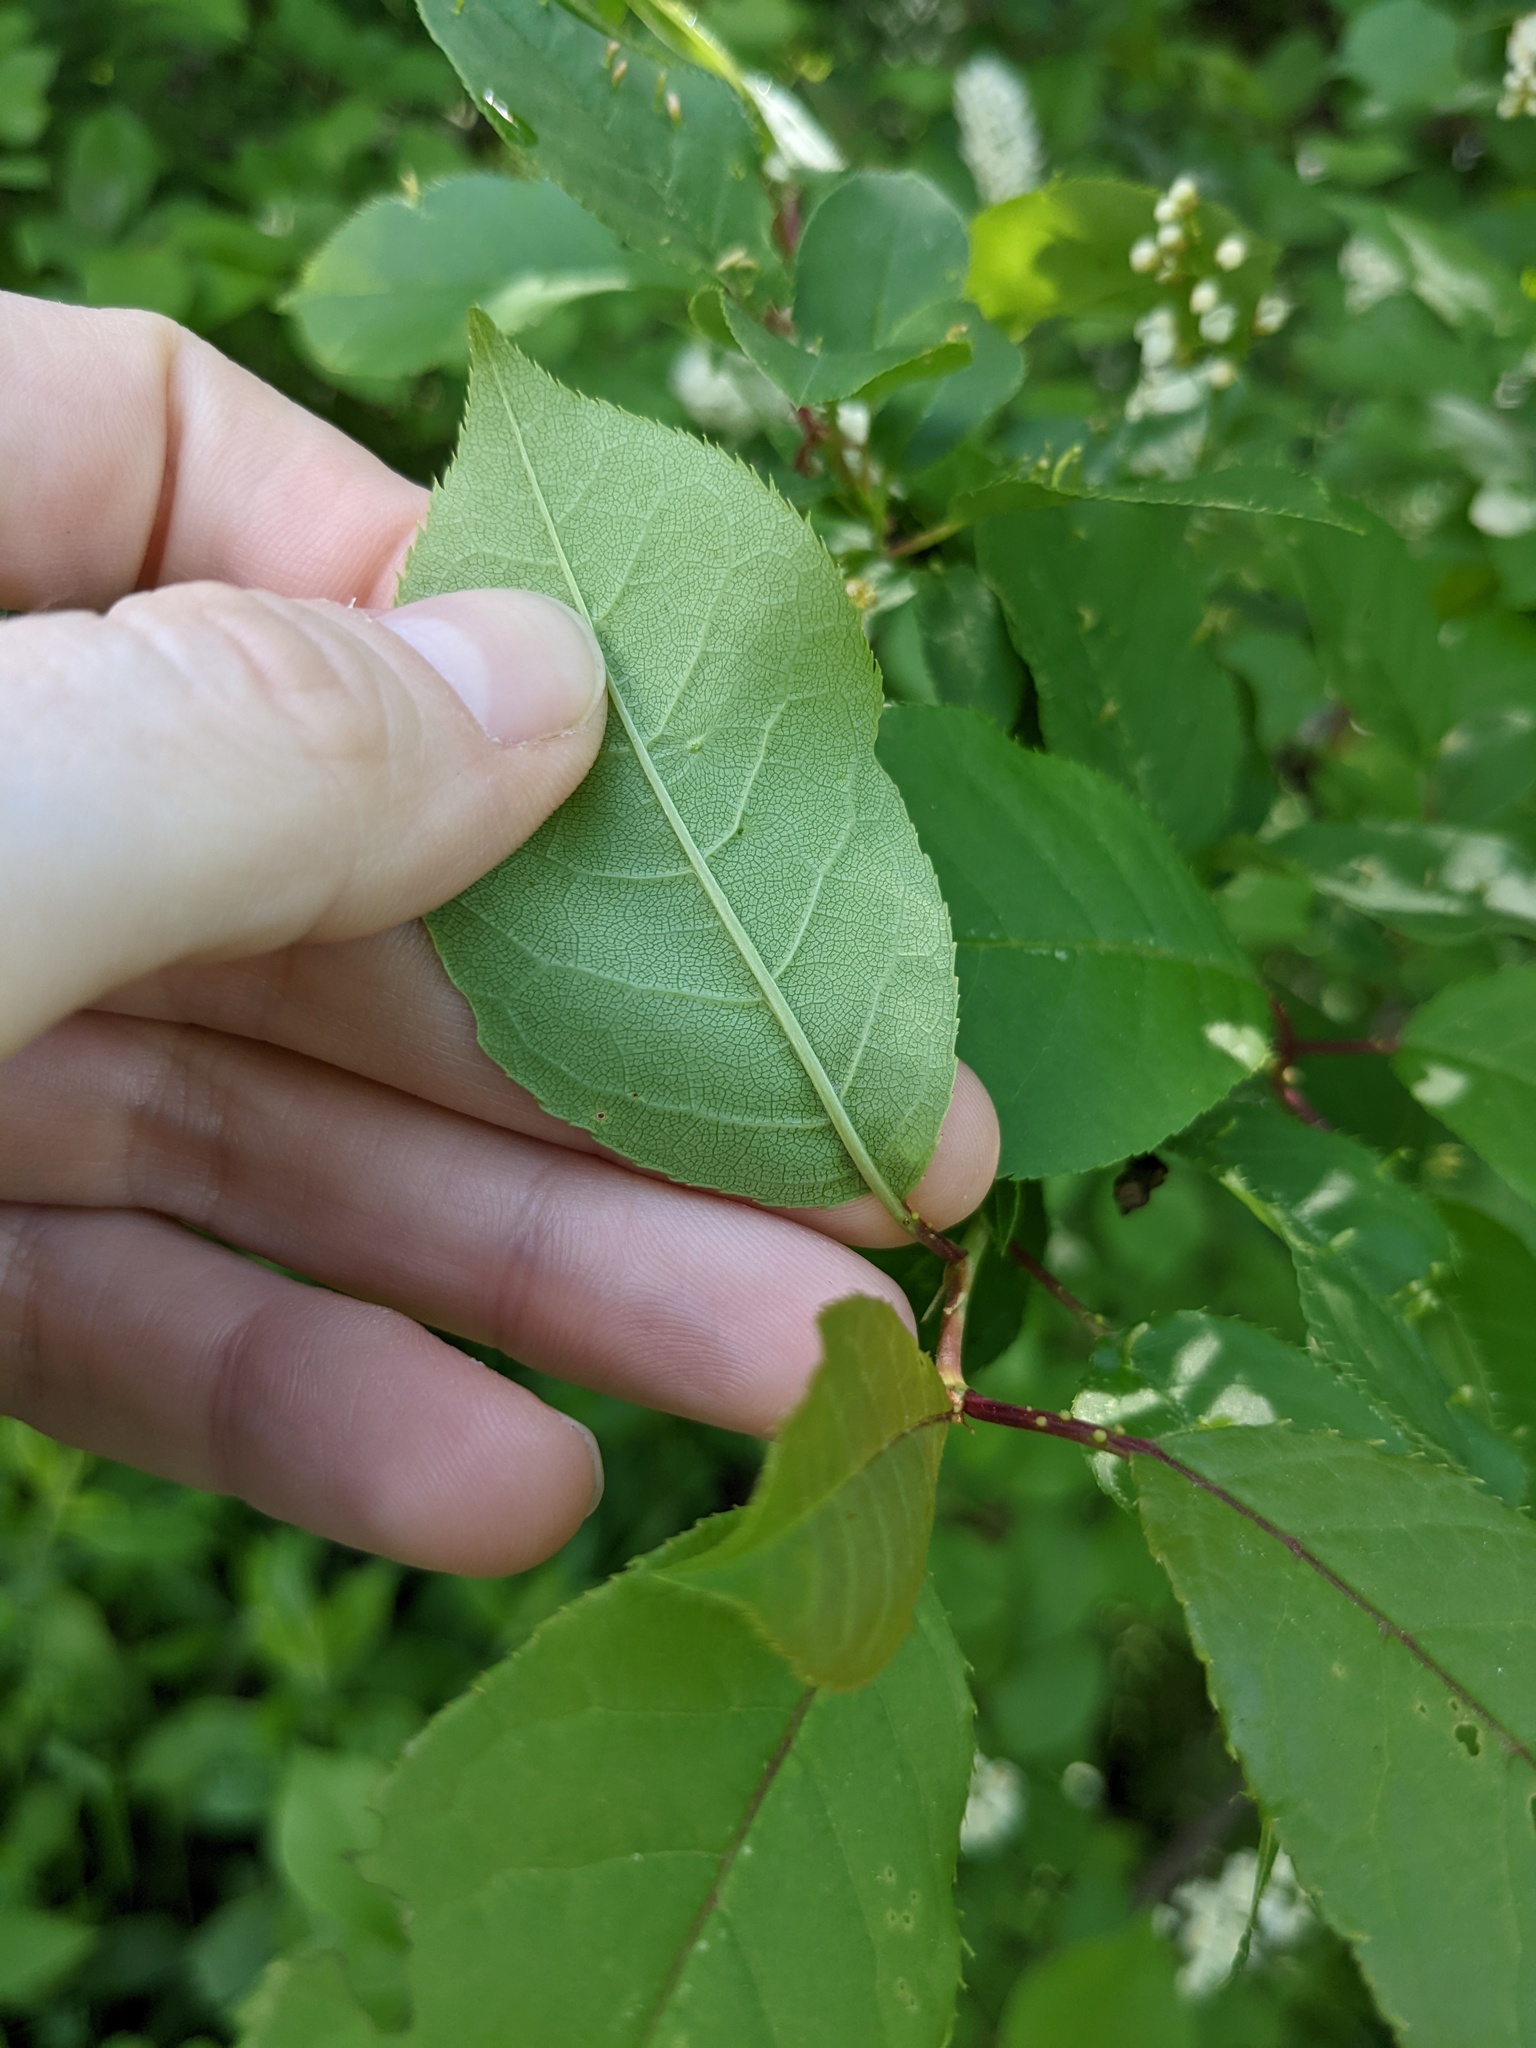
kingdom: Plantae
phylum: Tracheophyta
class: Magnoliopsida
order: Rosales
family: Rosaceae
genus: Prunus
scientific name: Prunus virginiana
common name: Chokecherry
